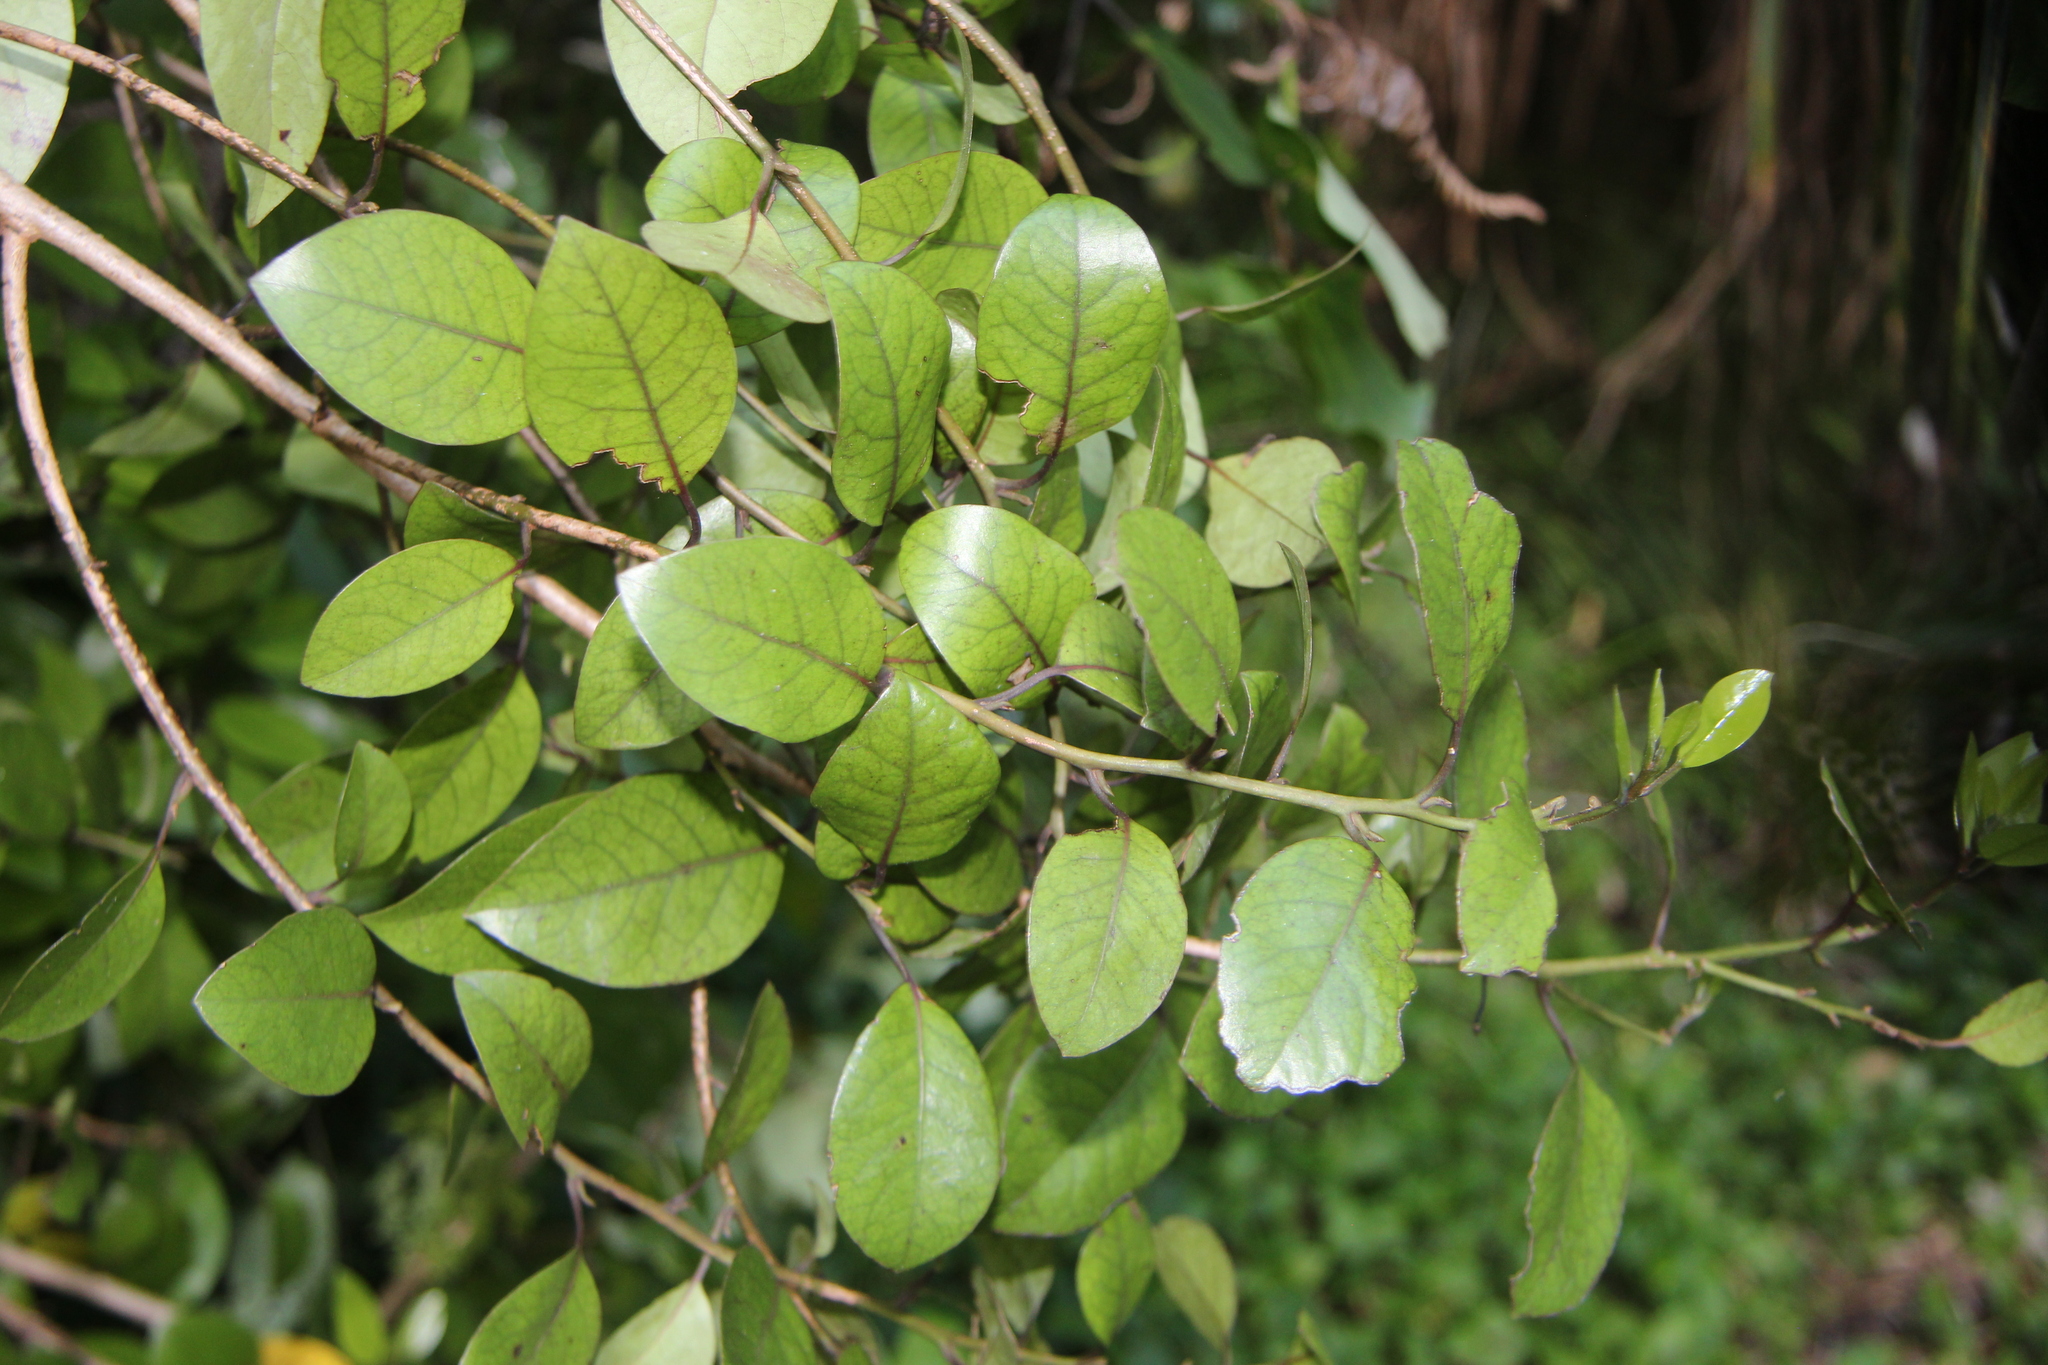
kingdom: Plantae
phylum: Tracheophyta
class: Magnoliopsida
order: Laurales
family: Lauraceae
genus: Litsea
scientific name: Litsea calicaris
